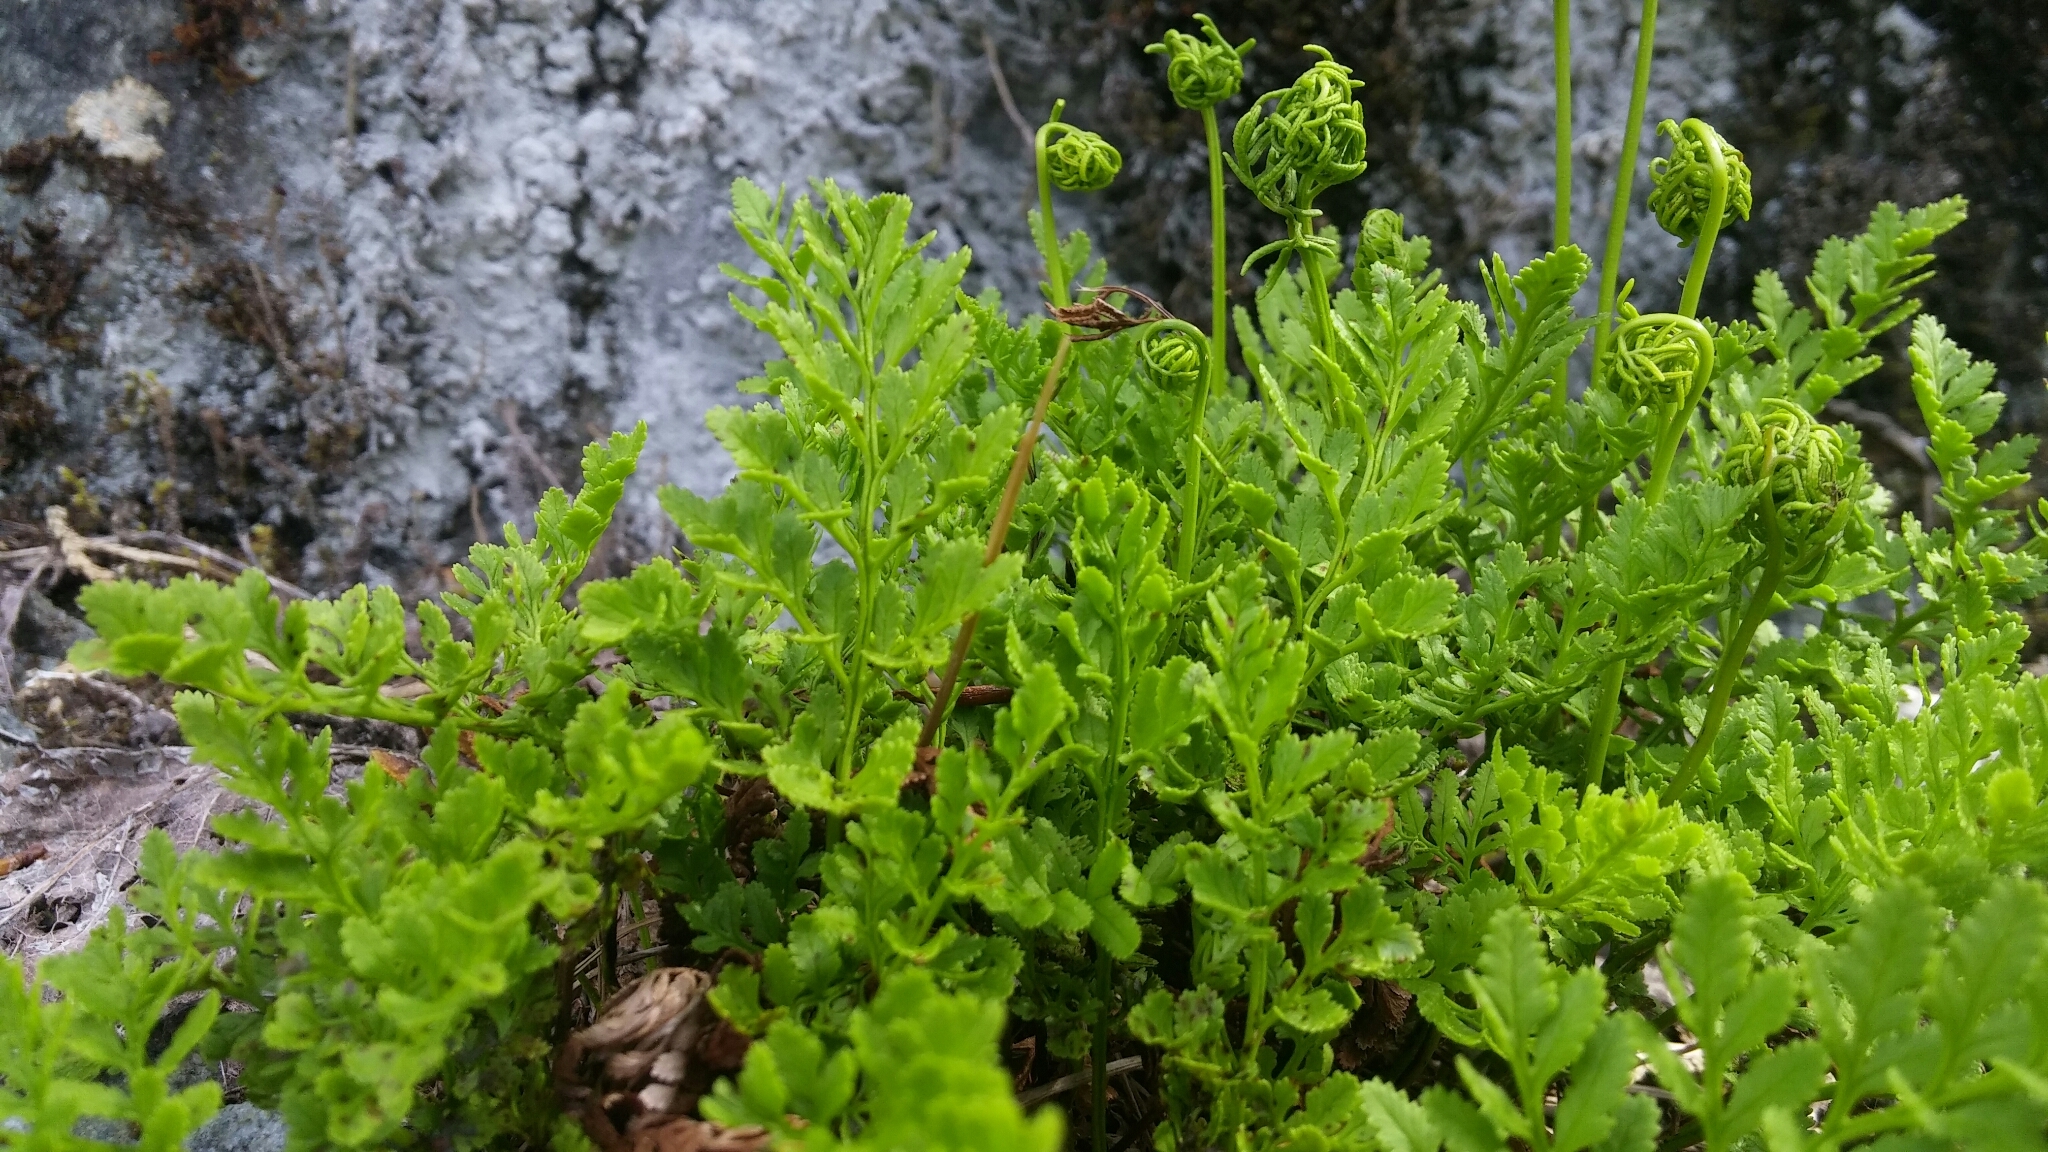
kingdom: Plantae
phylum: Tracheophyta
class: Polypodiopsida
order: Polypodiales
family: Pteridaceae
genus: Cryptogramma
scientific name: Cryptogramma acrostichoides
